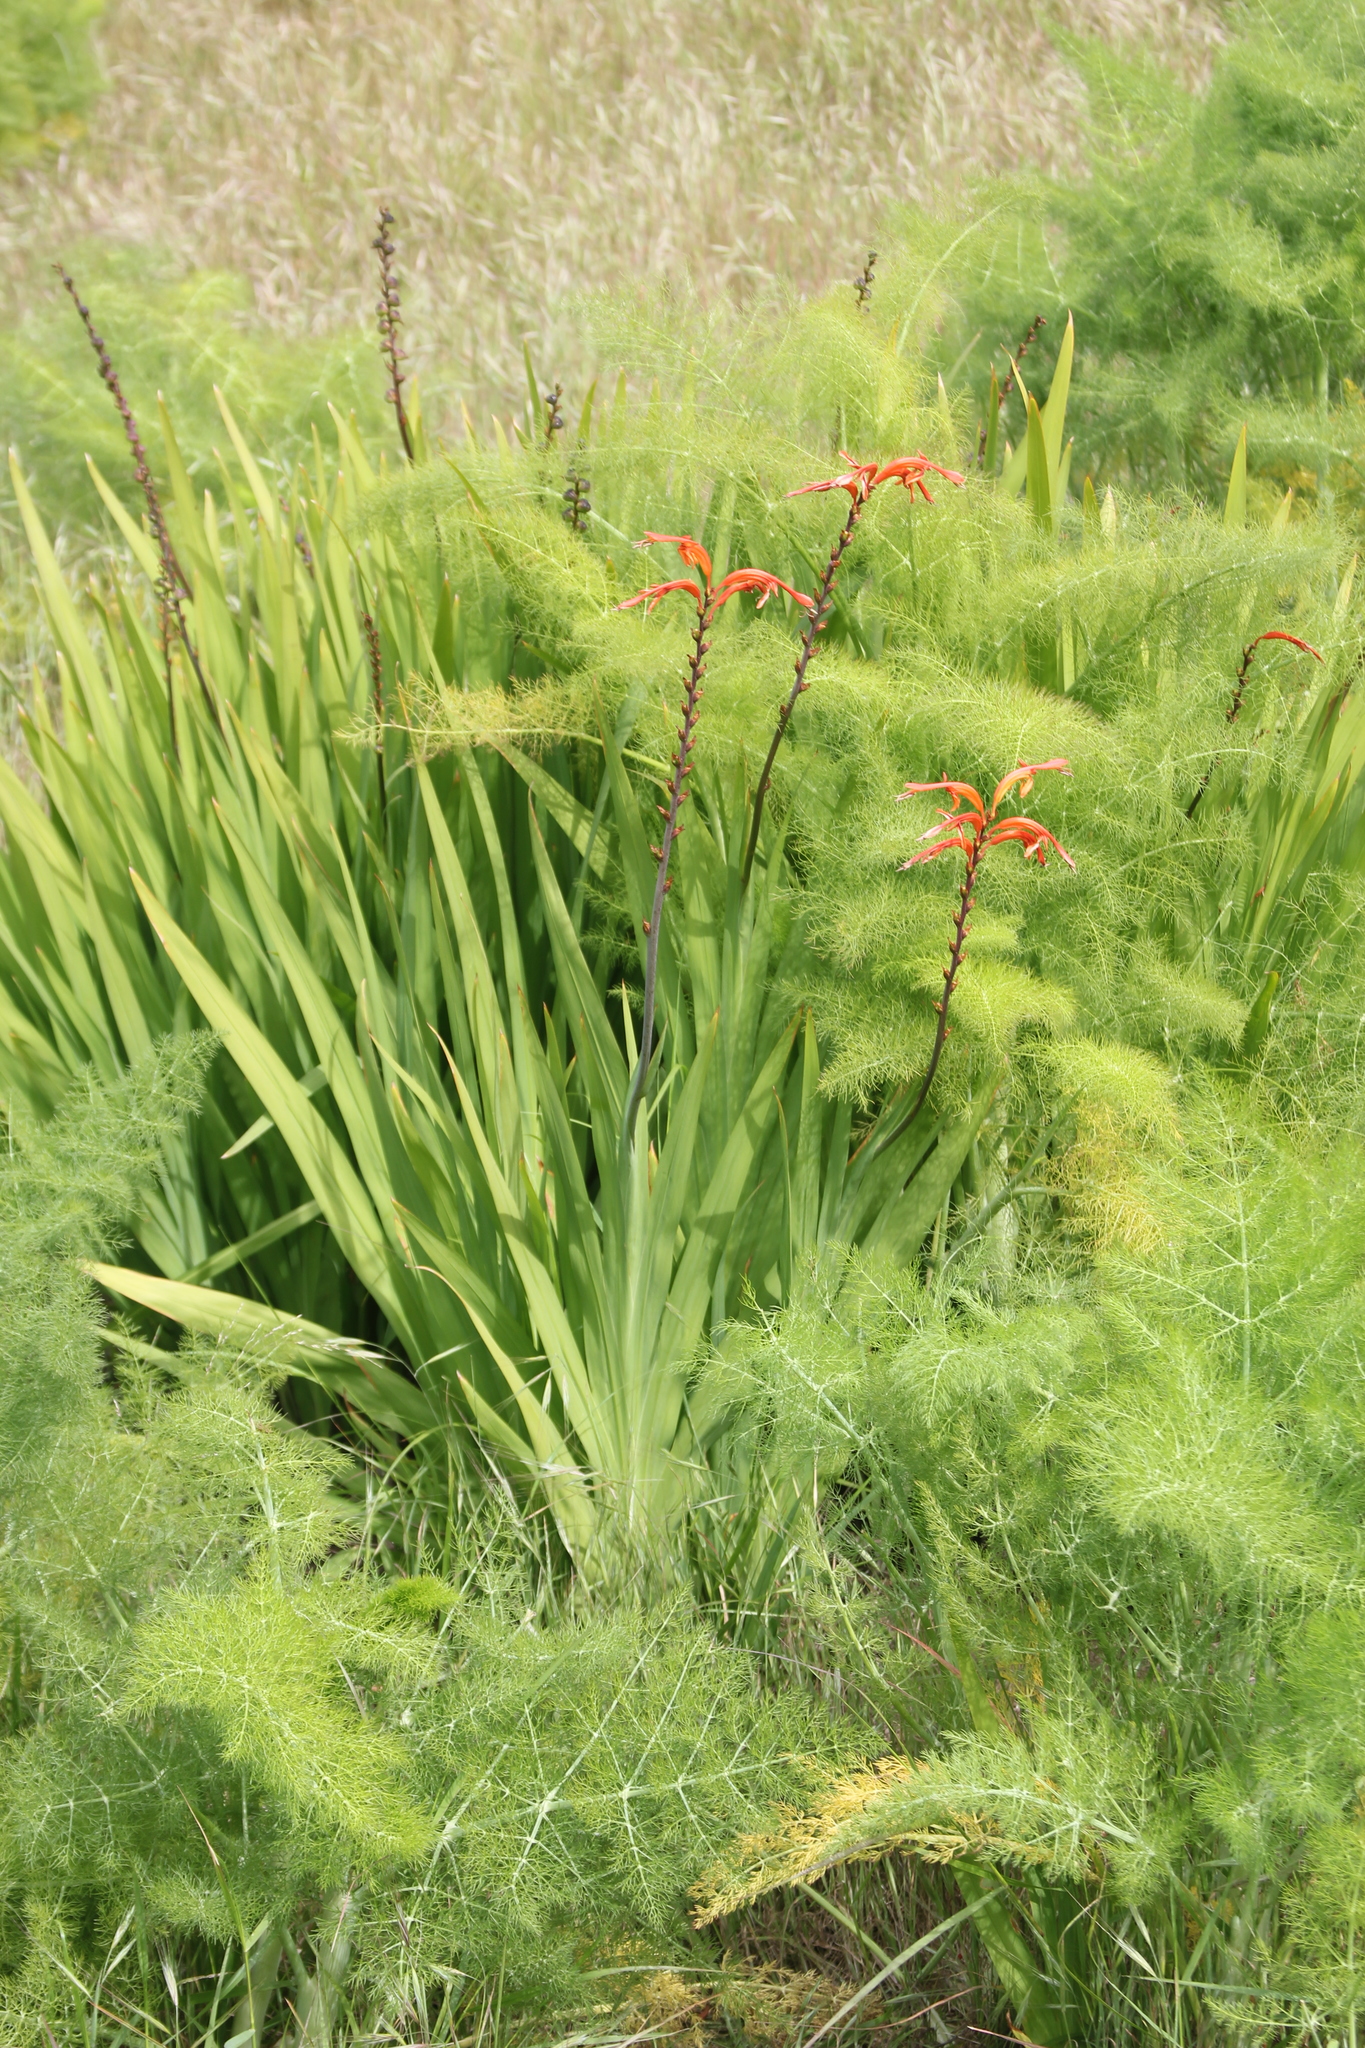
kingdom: Plantae
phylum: Tracheophyta
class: Liliopsida
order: Asparagales
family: Iridaceae
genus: Chasmanthe
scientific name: Chasmanthe floribunda
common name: African cornflag
